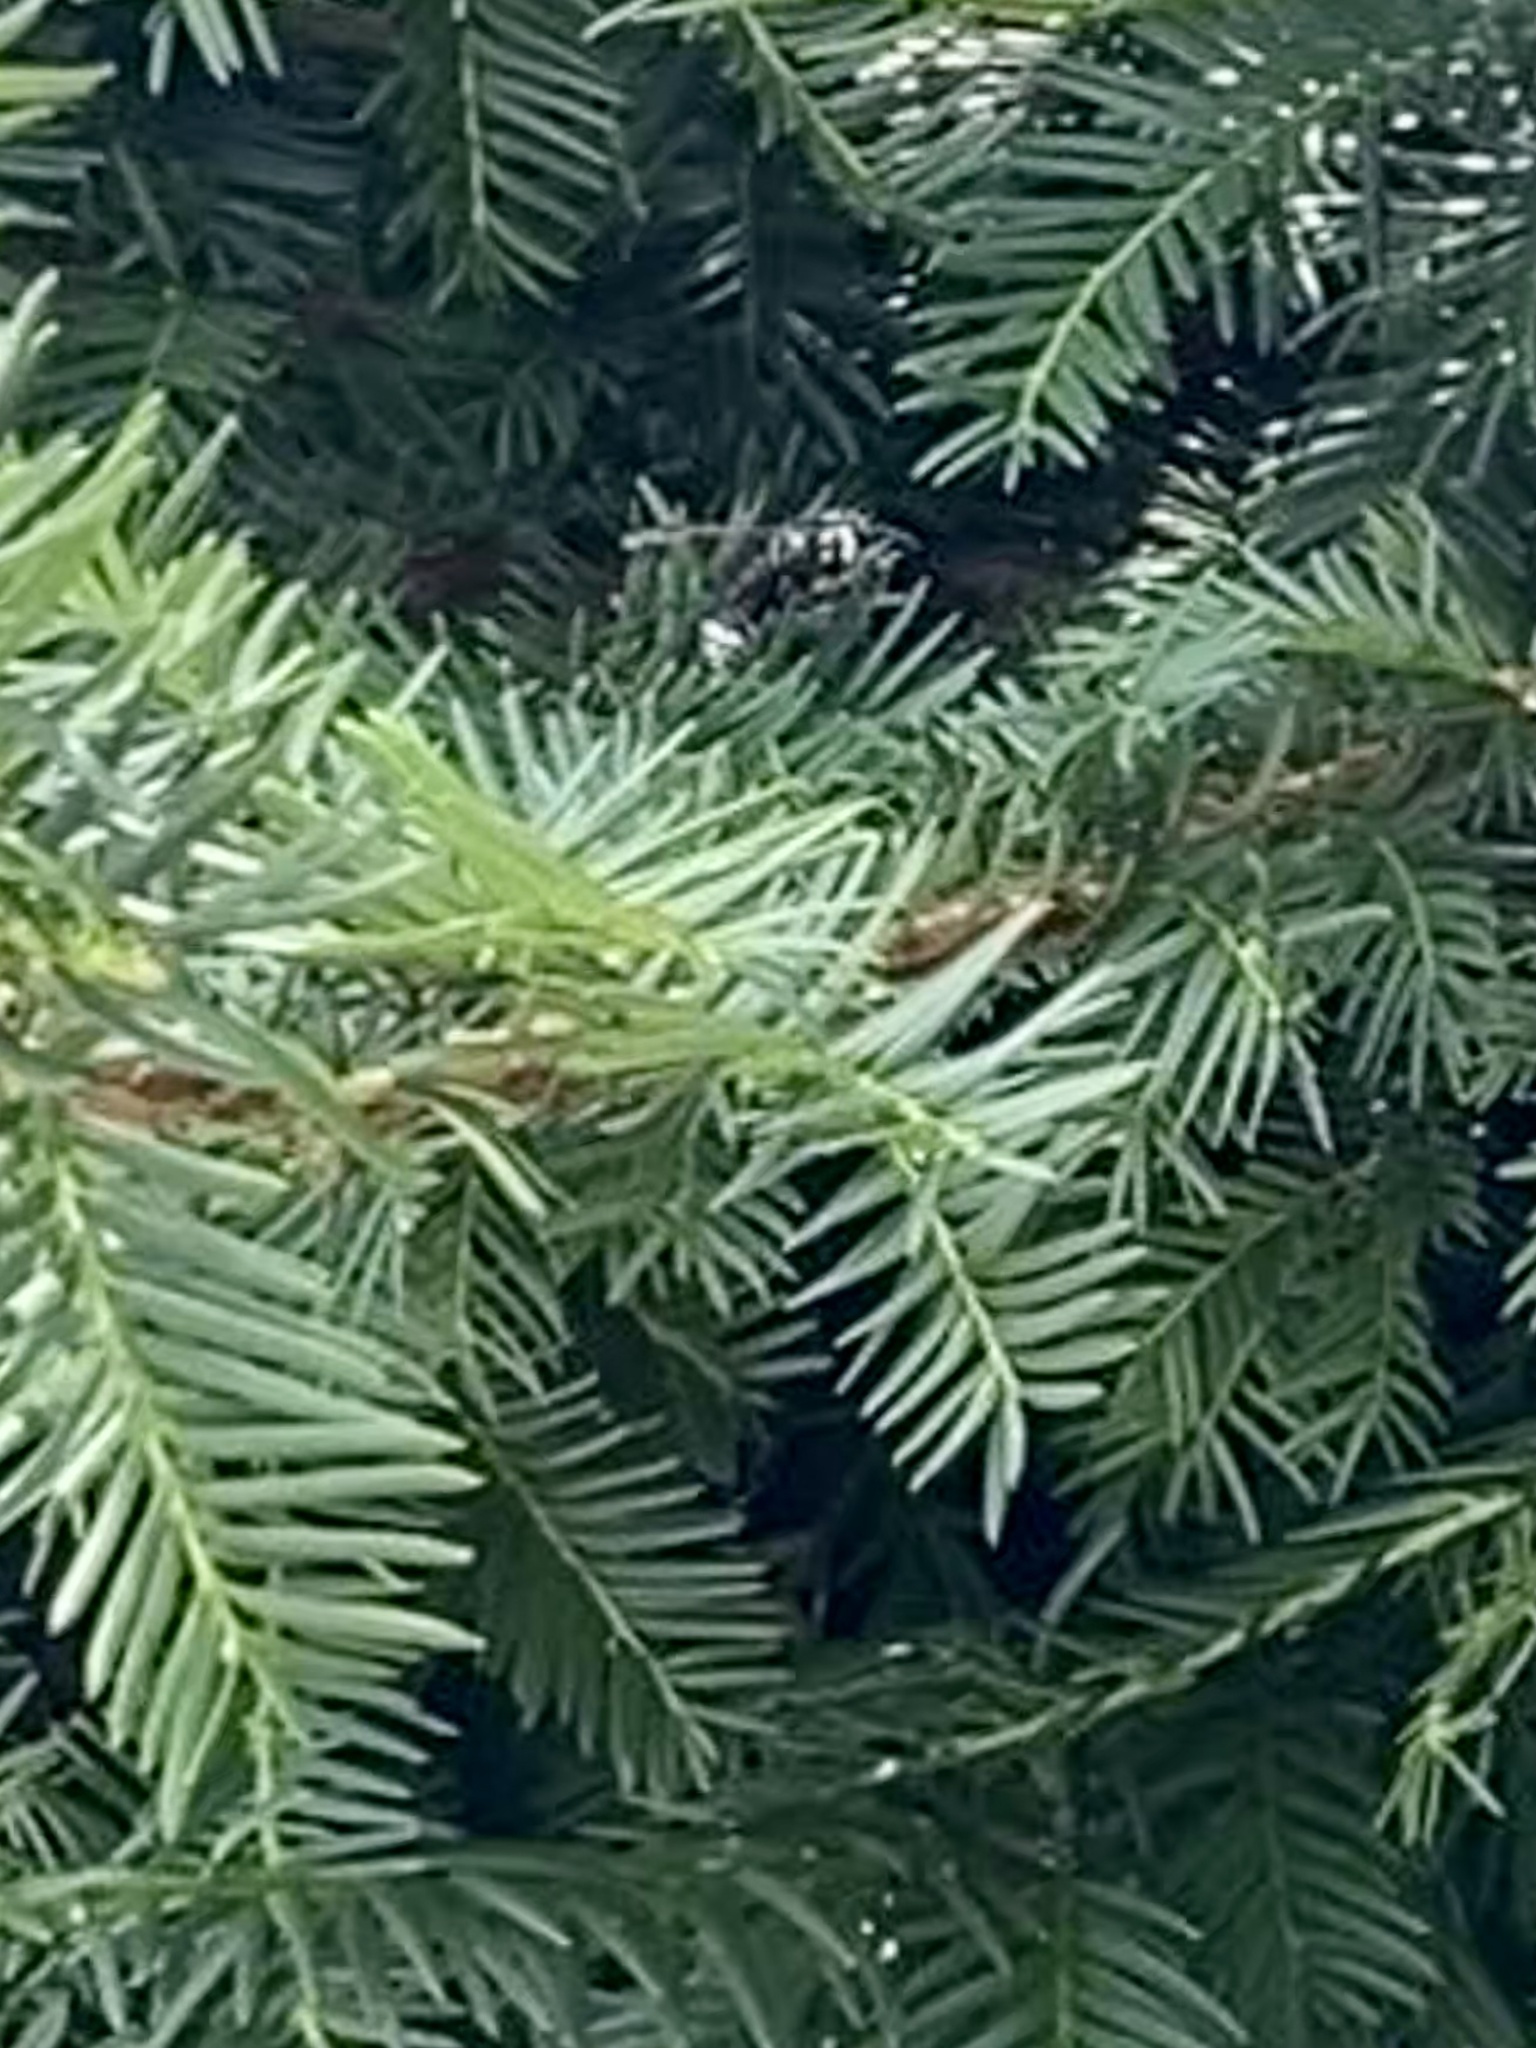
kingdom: Animalia
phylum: Arthropoda
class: Insecta
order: Hymenoptera
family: Vespidae
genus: Dolichovespula
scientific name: Dolichovespula maculata
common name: Bald-faced hornet
